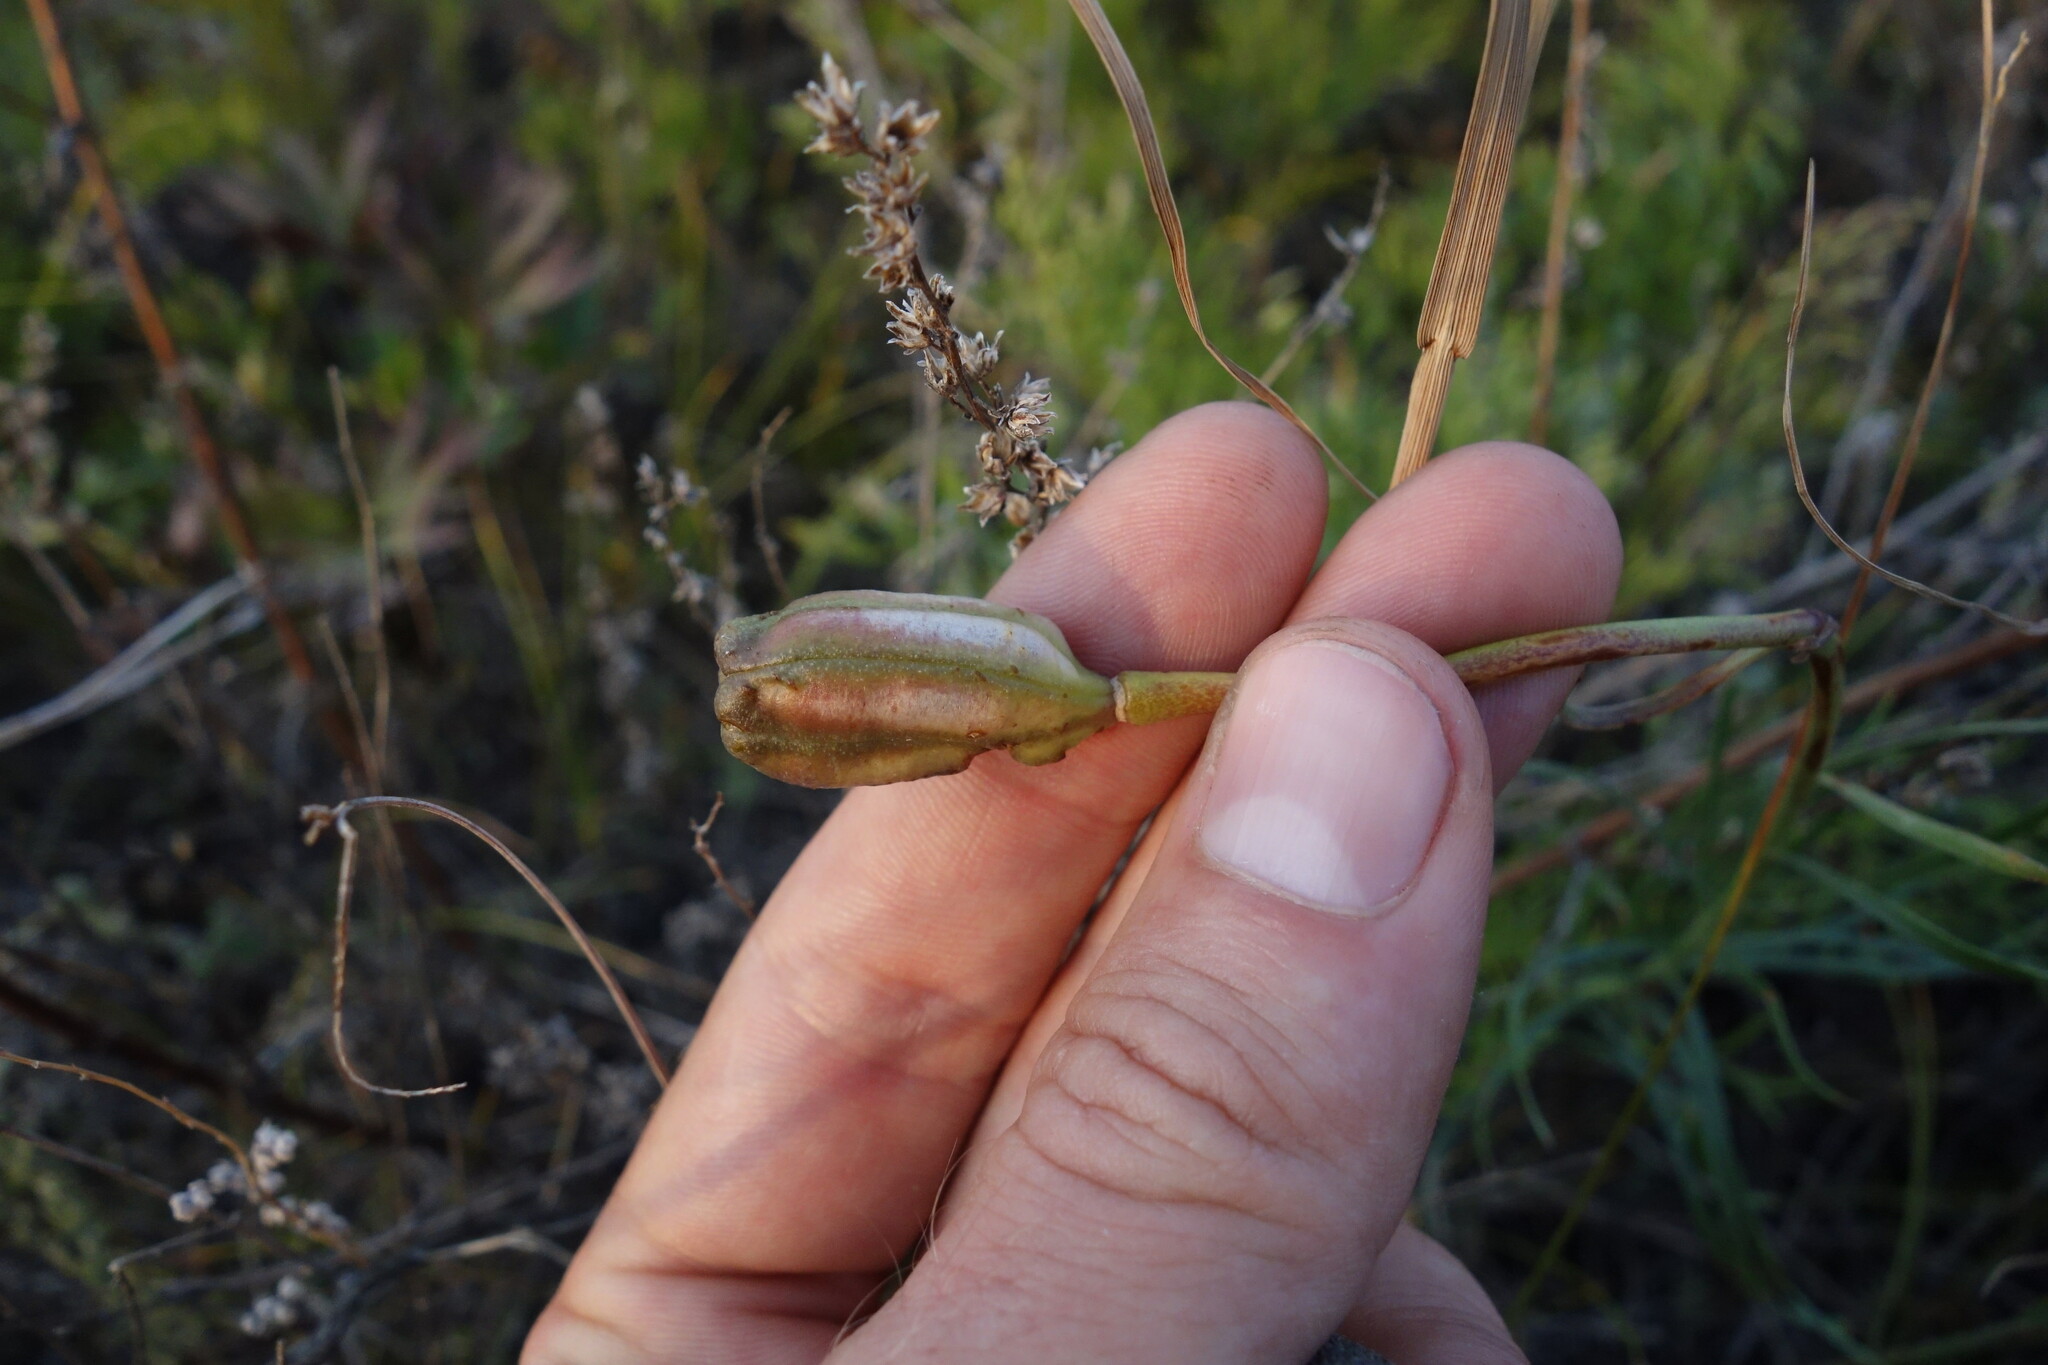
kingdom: Plantae
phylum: Tracheophyta
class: Liliopsida
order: Liliales
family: Liliaceae
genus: Lilium
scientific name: Lilium pumilum
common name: Coral lily
